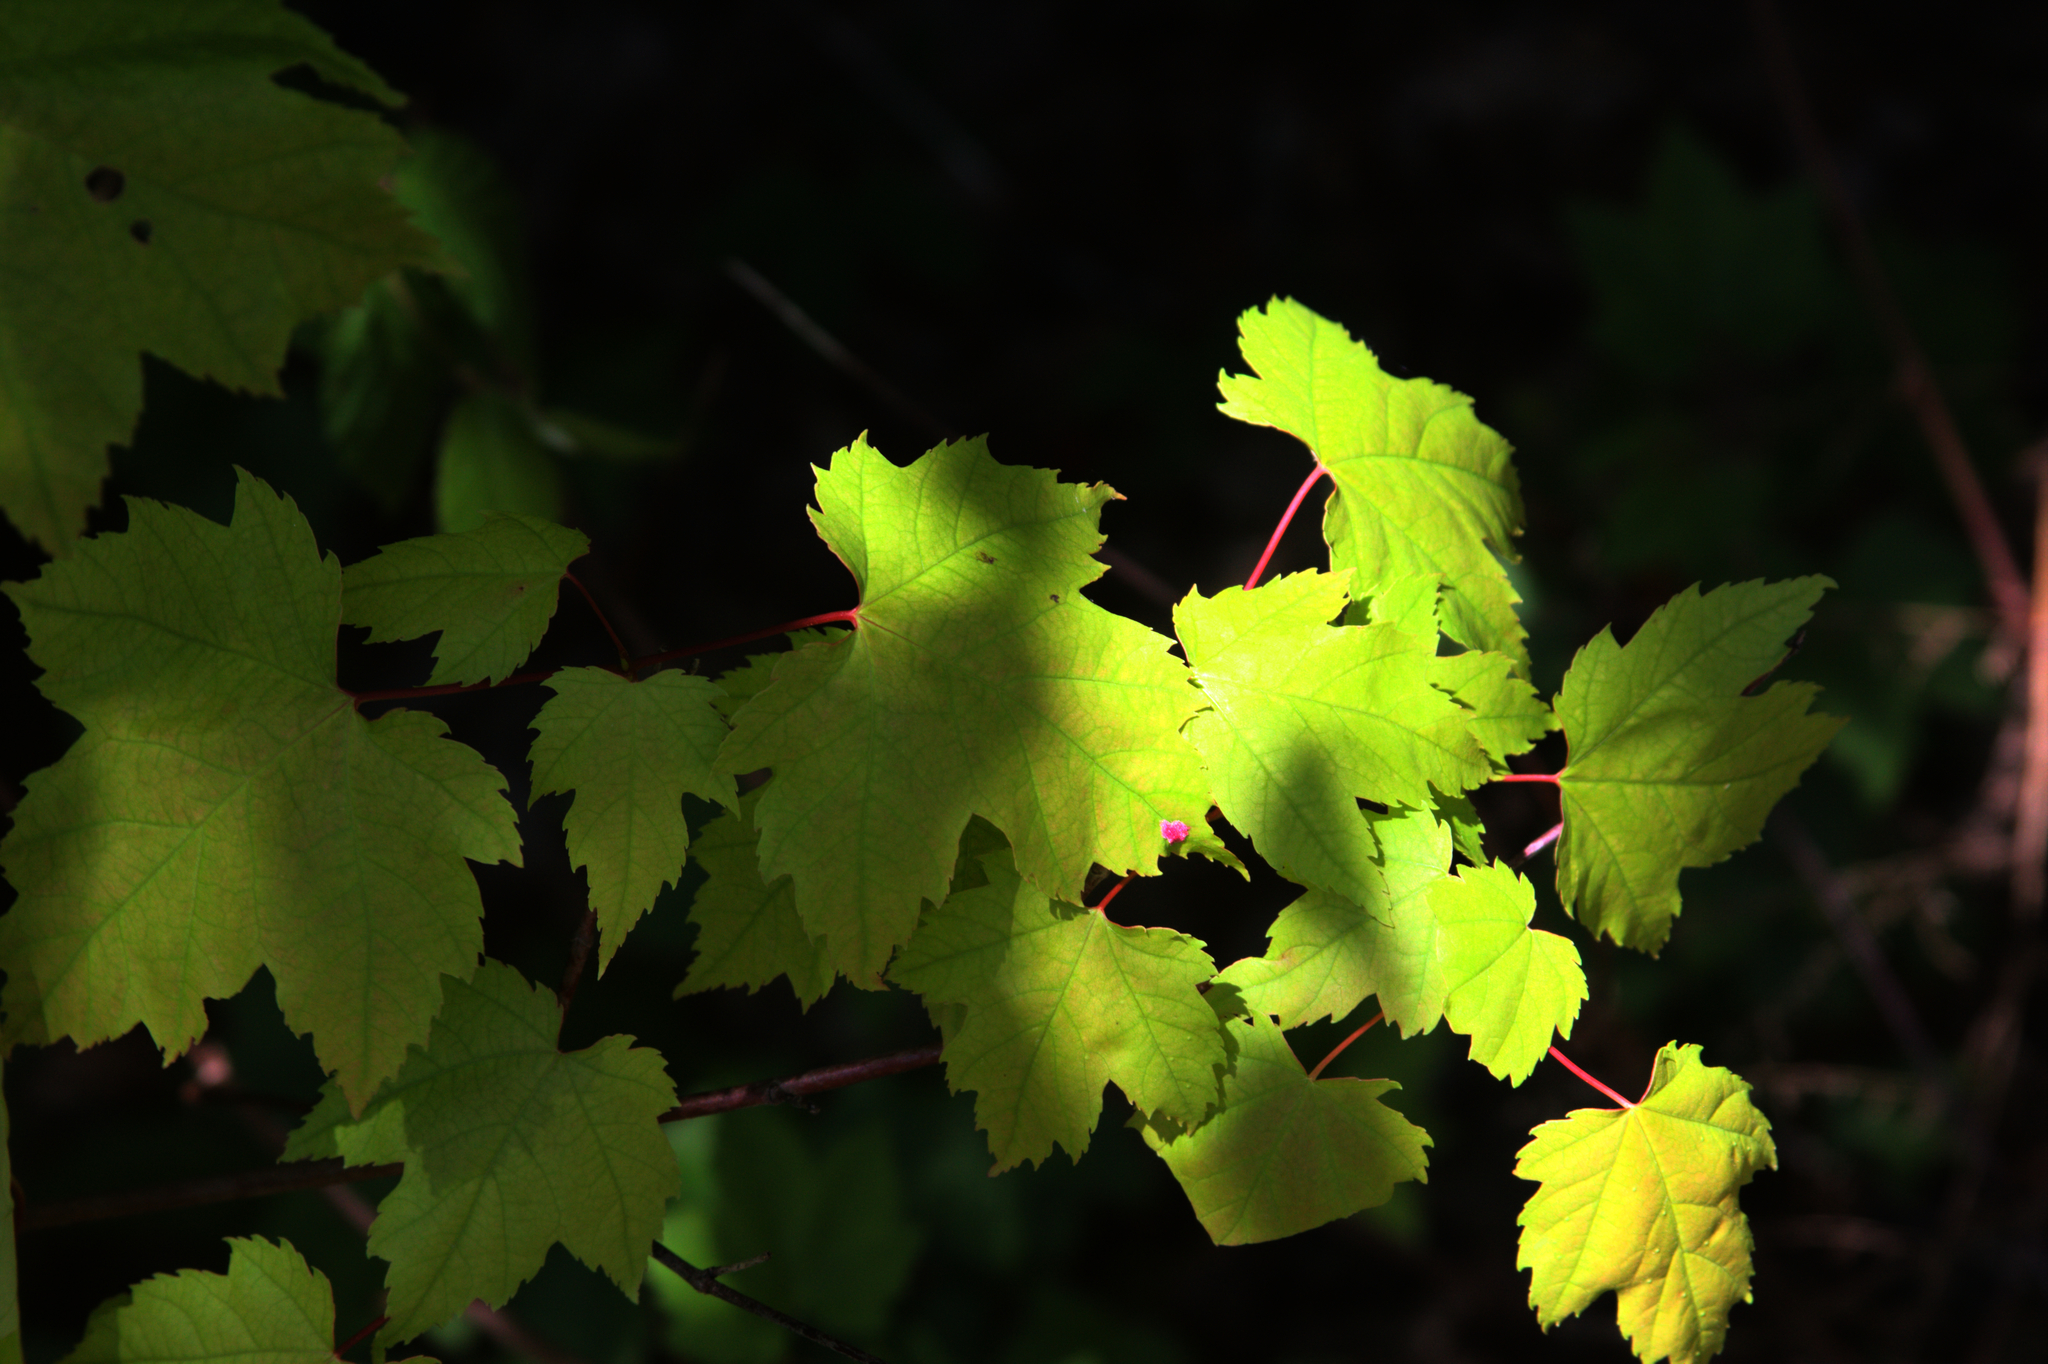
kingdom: Plantae
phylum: Tracheophyta
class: Magnoliopsida
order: Sapindales
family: Sapindaceae
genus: Acer
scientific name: Acer rubrum
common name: Red maple
